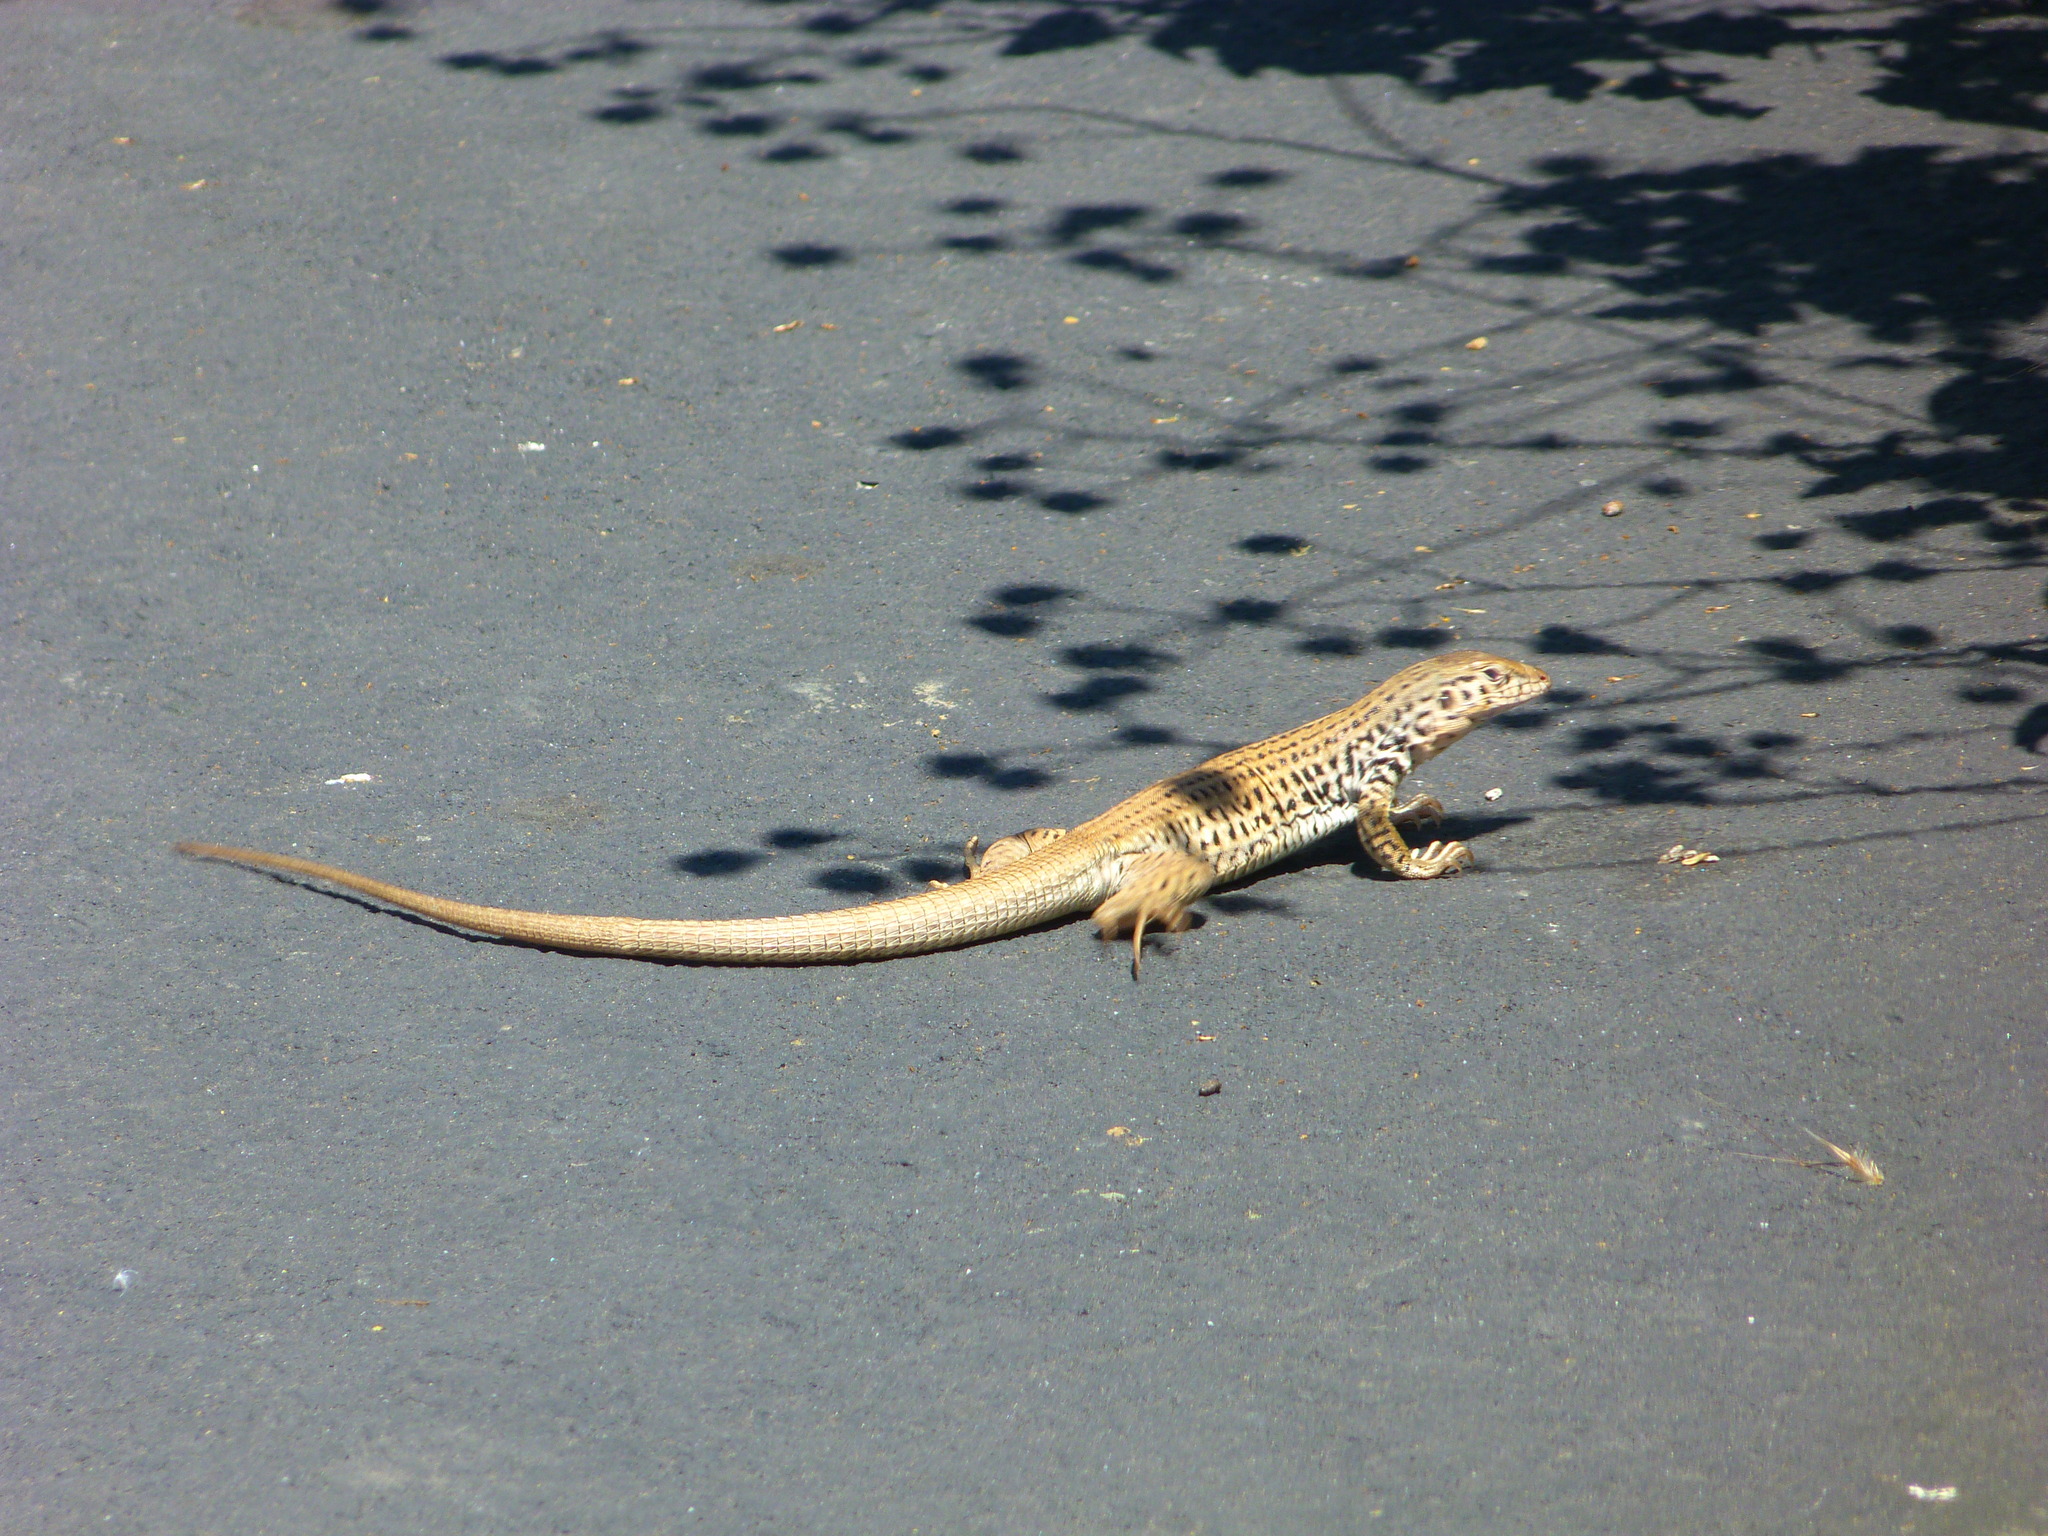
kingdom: Animalia
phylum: Chordata
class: Squamata
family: Teiidae
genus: Aspidoscelis
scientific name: Aspidoscelis tigris
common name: Tiger whiptail
